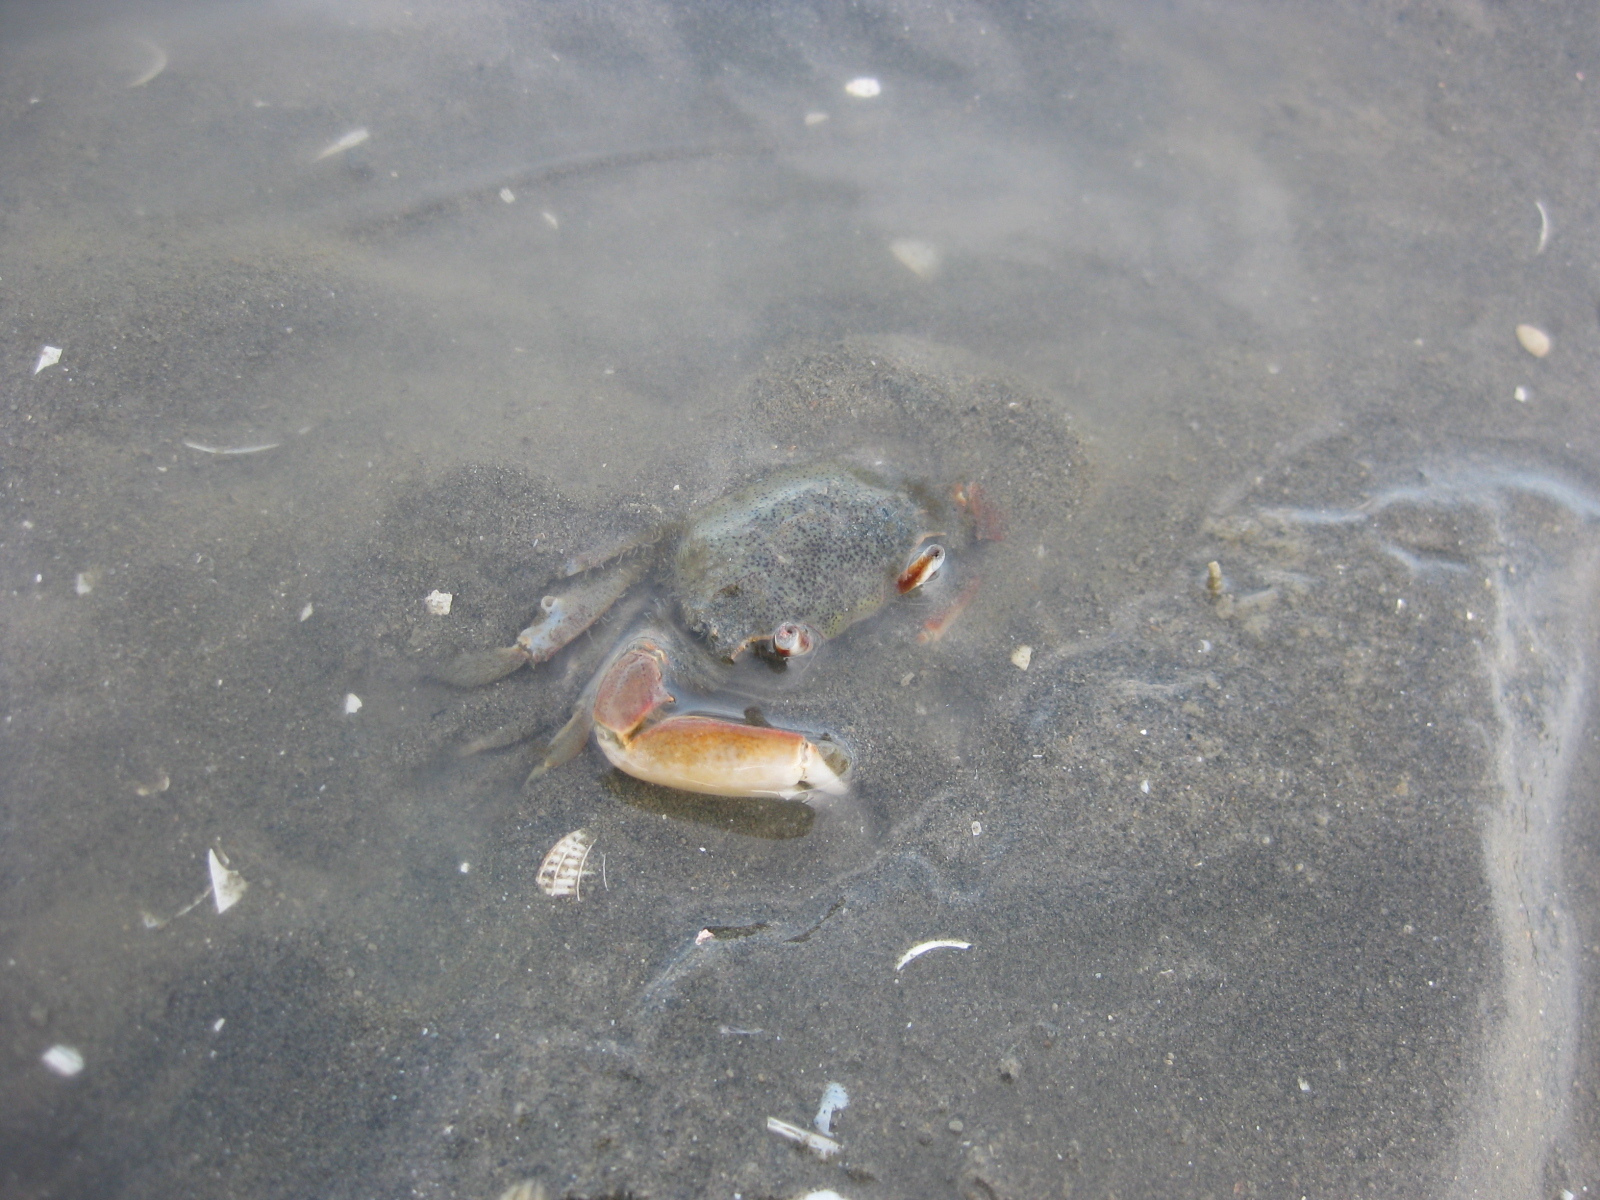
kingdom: Animalia
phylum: Arthropoda
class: Malacostraca
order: Decapoda
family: Macrophthalmidae
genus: Hemiplax
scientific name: Hemiplax hirtipes
